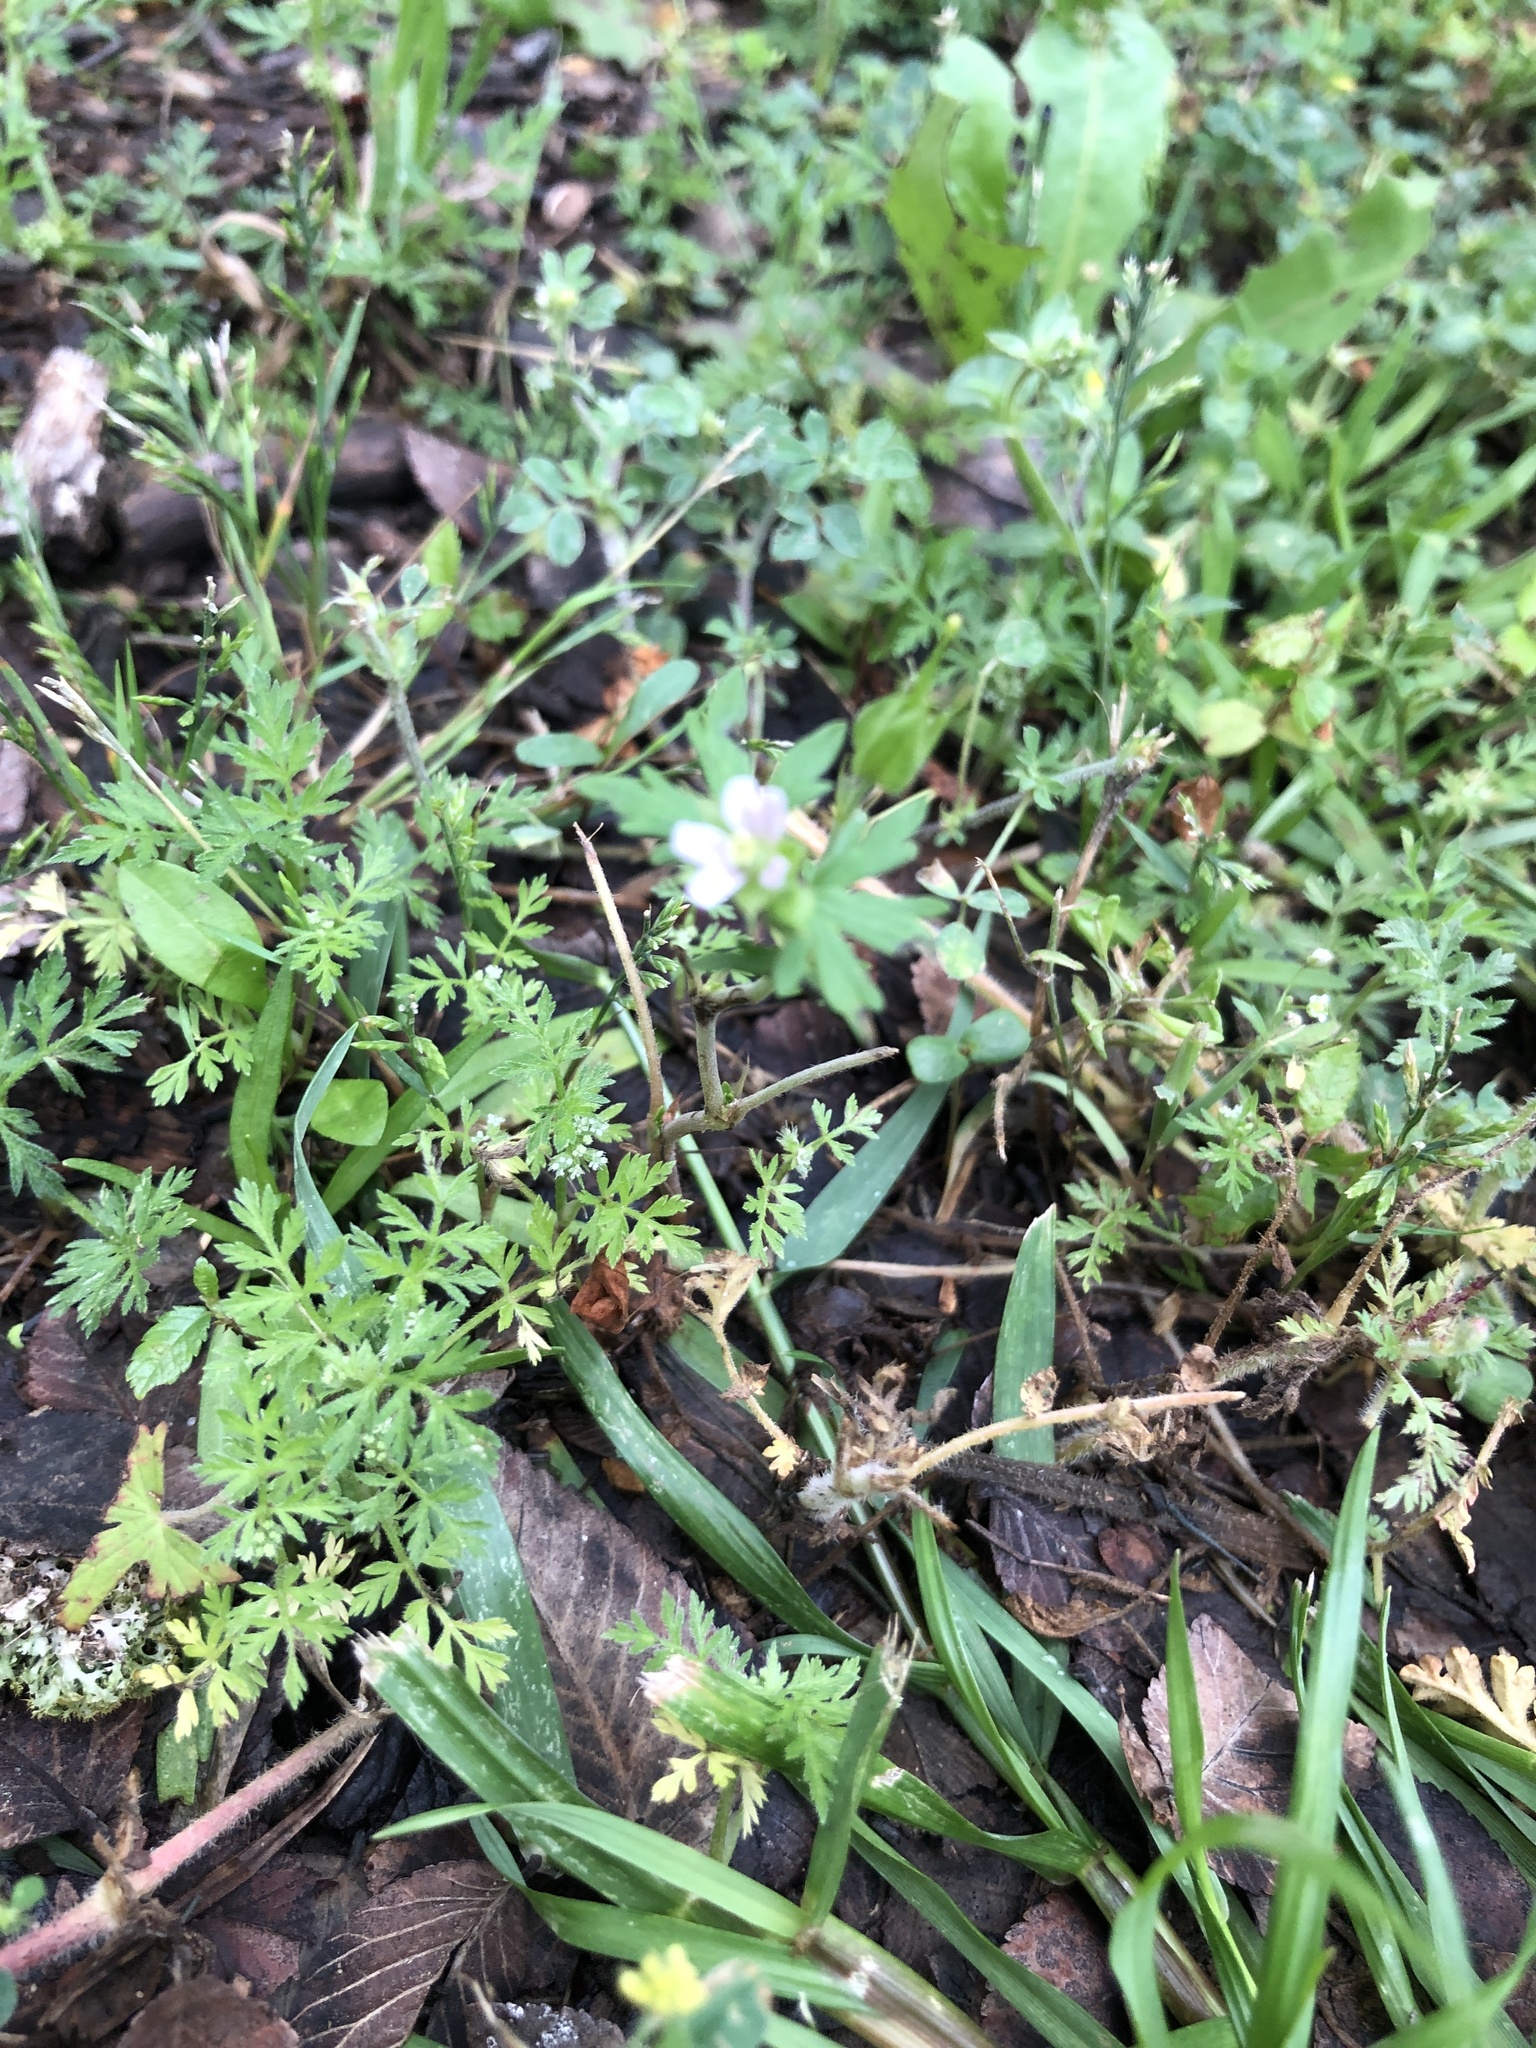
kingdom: Plantae
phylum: Tracheophyta
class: Magnoliopsida
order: Geraniales
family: Geraniaceae
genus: Geranium
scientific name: Geranium carolinianum
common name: Carolina crane's-bill
